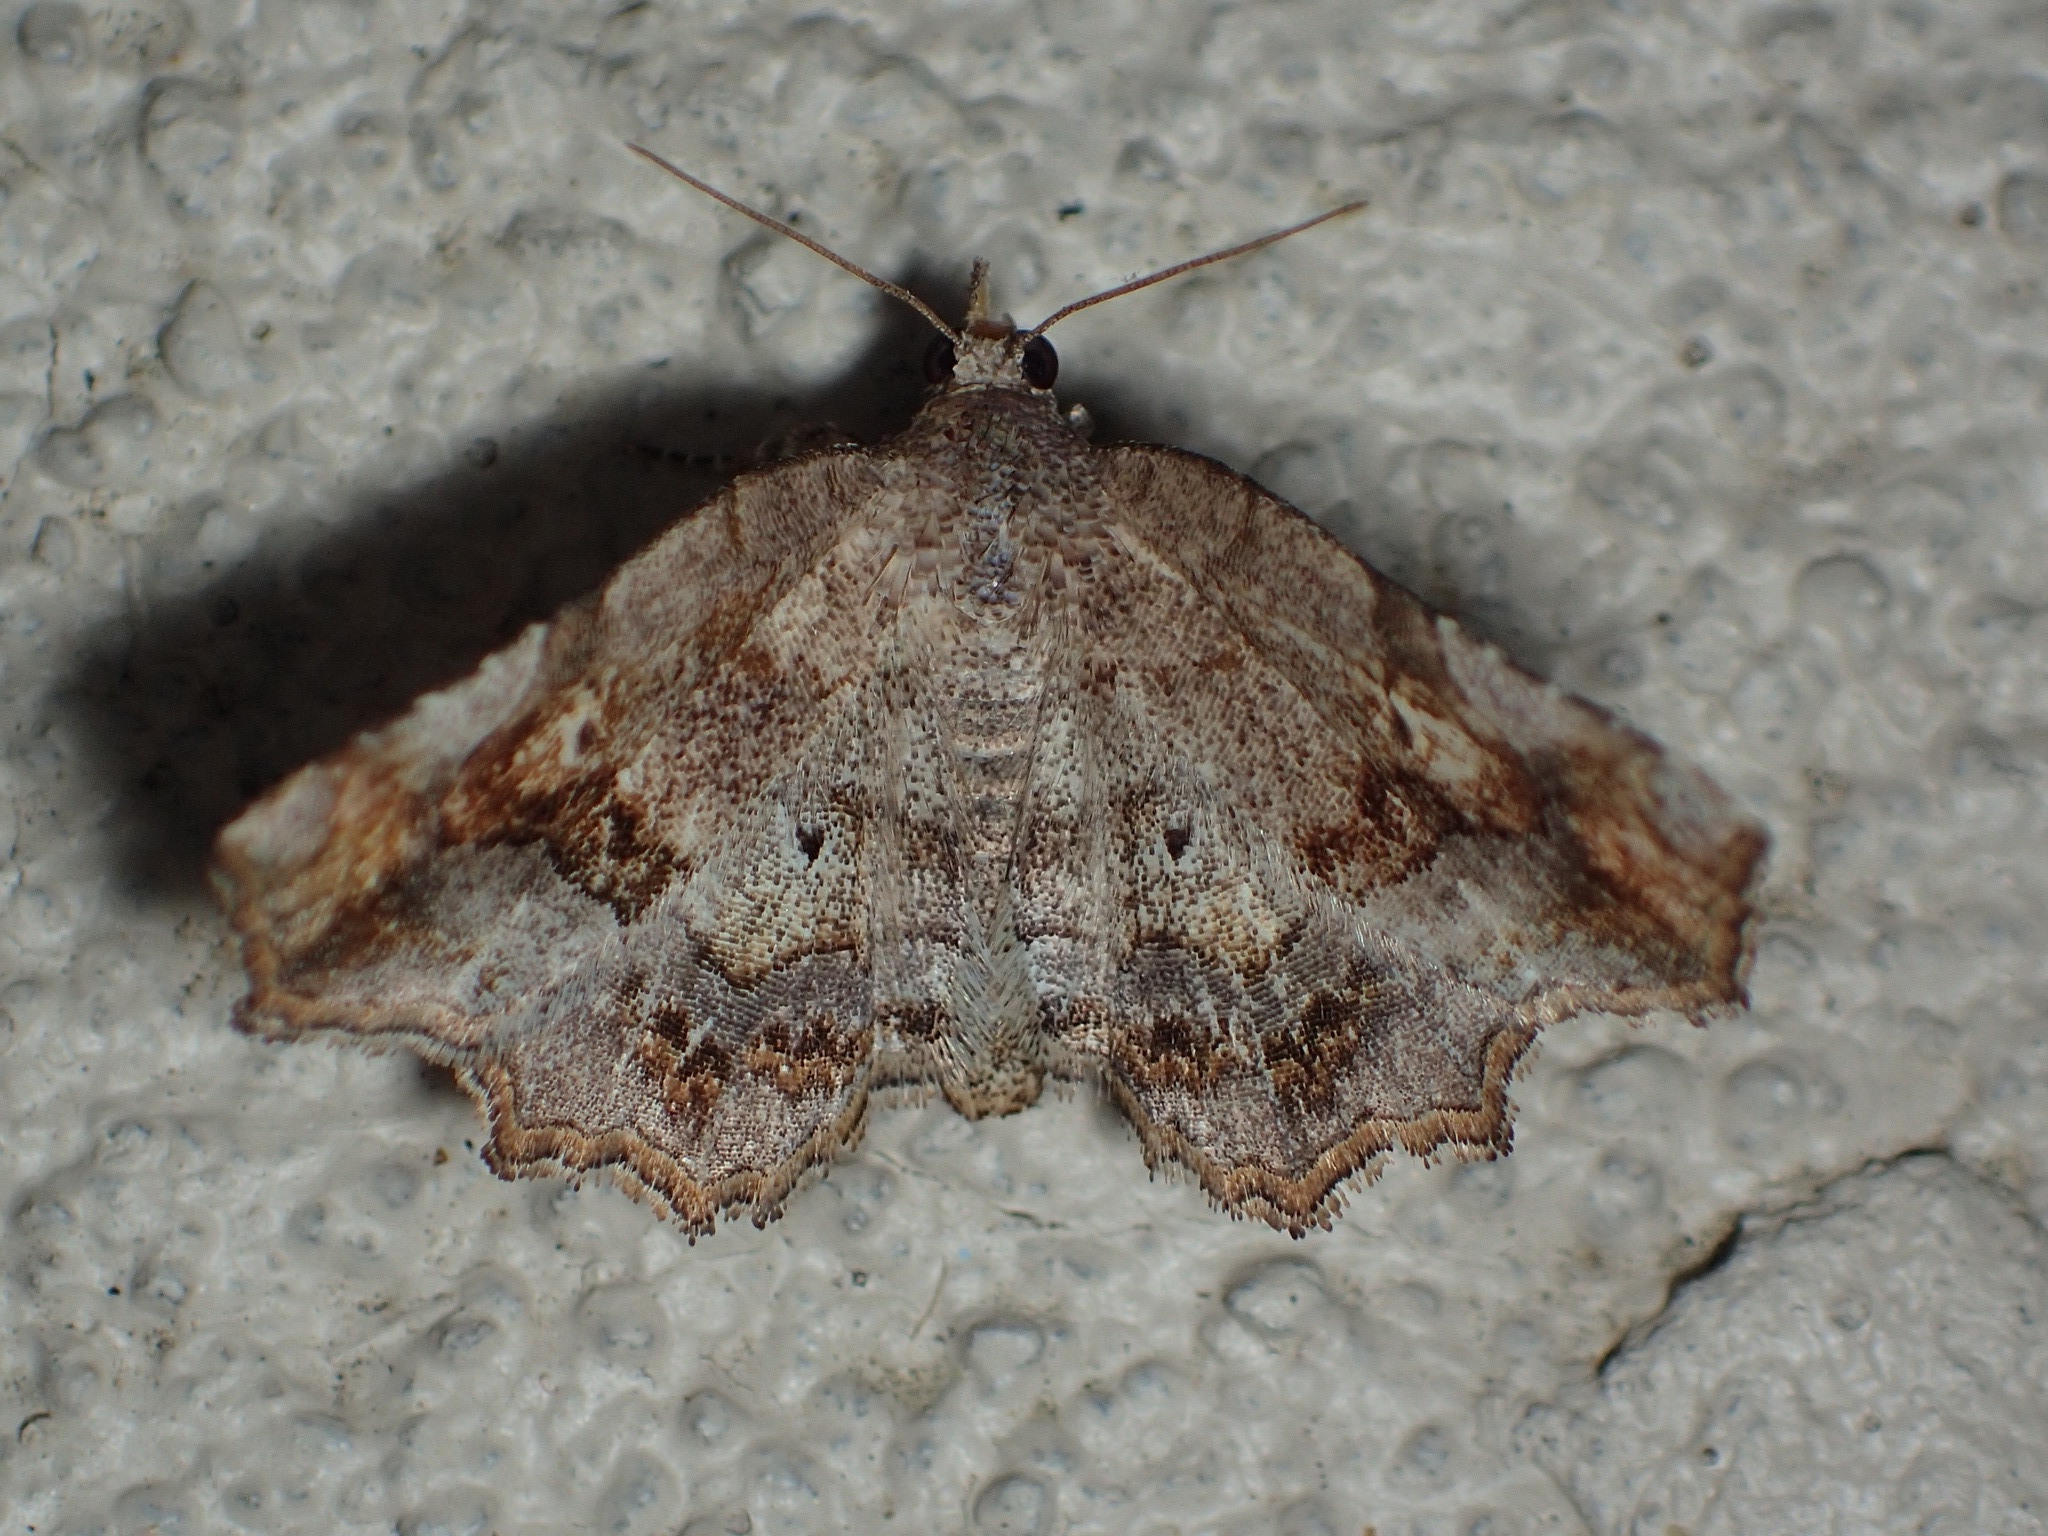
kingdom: Animalia
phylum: Arthropoda
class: Insecta
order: Lepidoptera
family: Erebidae
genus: Pangrapta
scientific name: Pangrapta decoralis
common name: Decorated owlet
